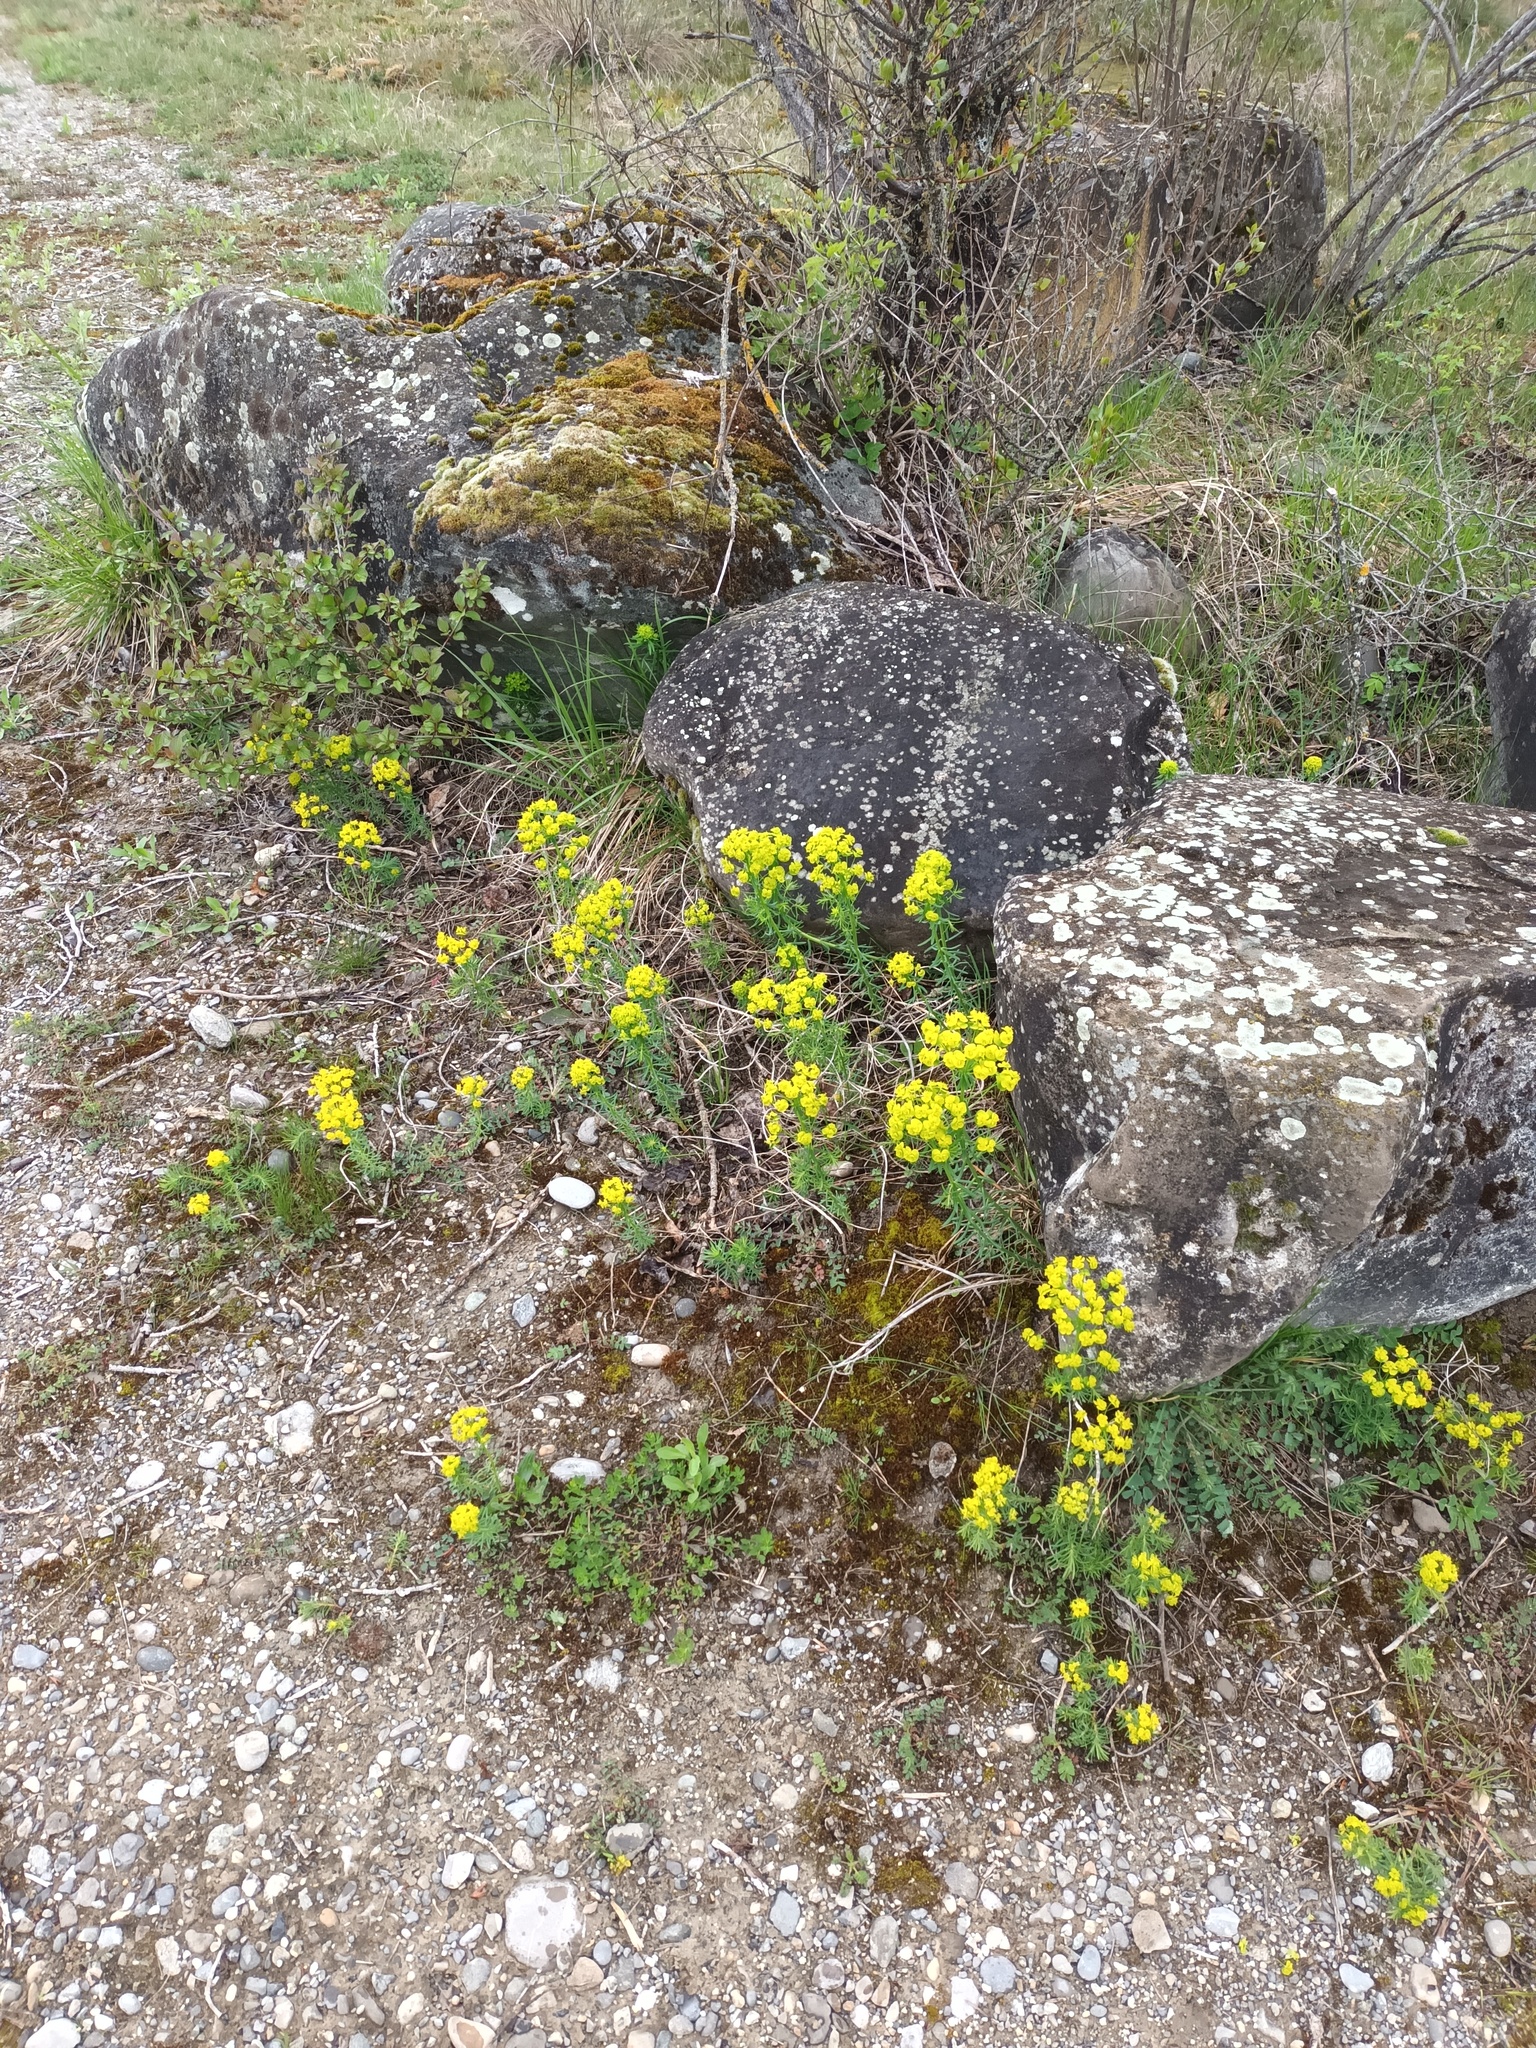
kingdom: Plantae
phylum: Tracheophyta
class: Magnoliopsida
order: Malpighiales
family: Euphorbiaceae
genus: Euphorbia
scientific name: Euphorbia cyparissias
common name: Cypress spurge
